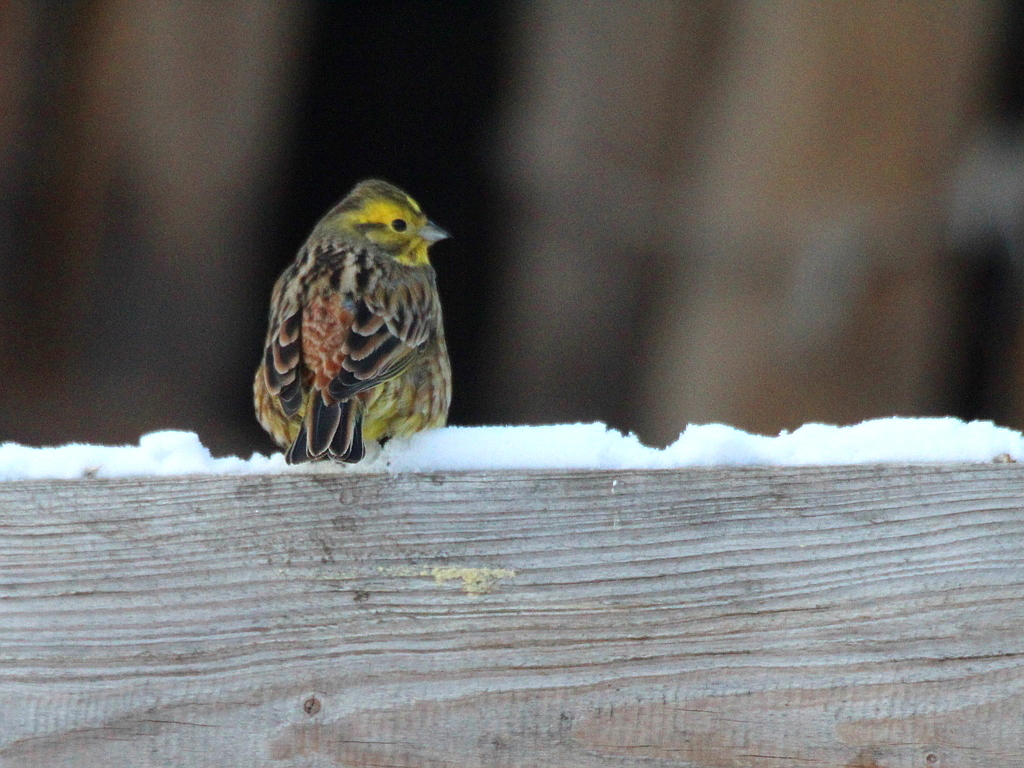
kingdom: Animalia
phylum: Chordata
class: Aves
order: Passeriformes
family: Emberizidae
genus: Emberiza
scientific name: Emberiza citrinella
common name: Yellowhammer
